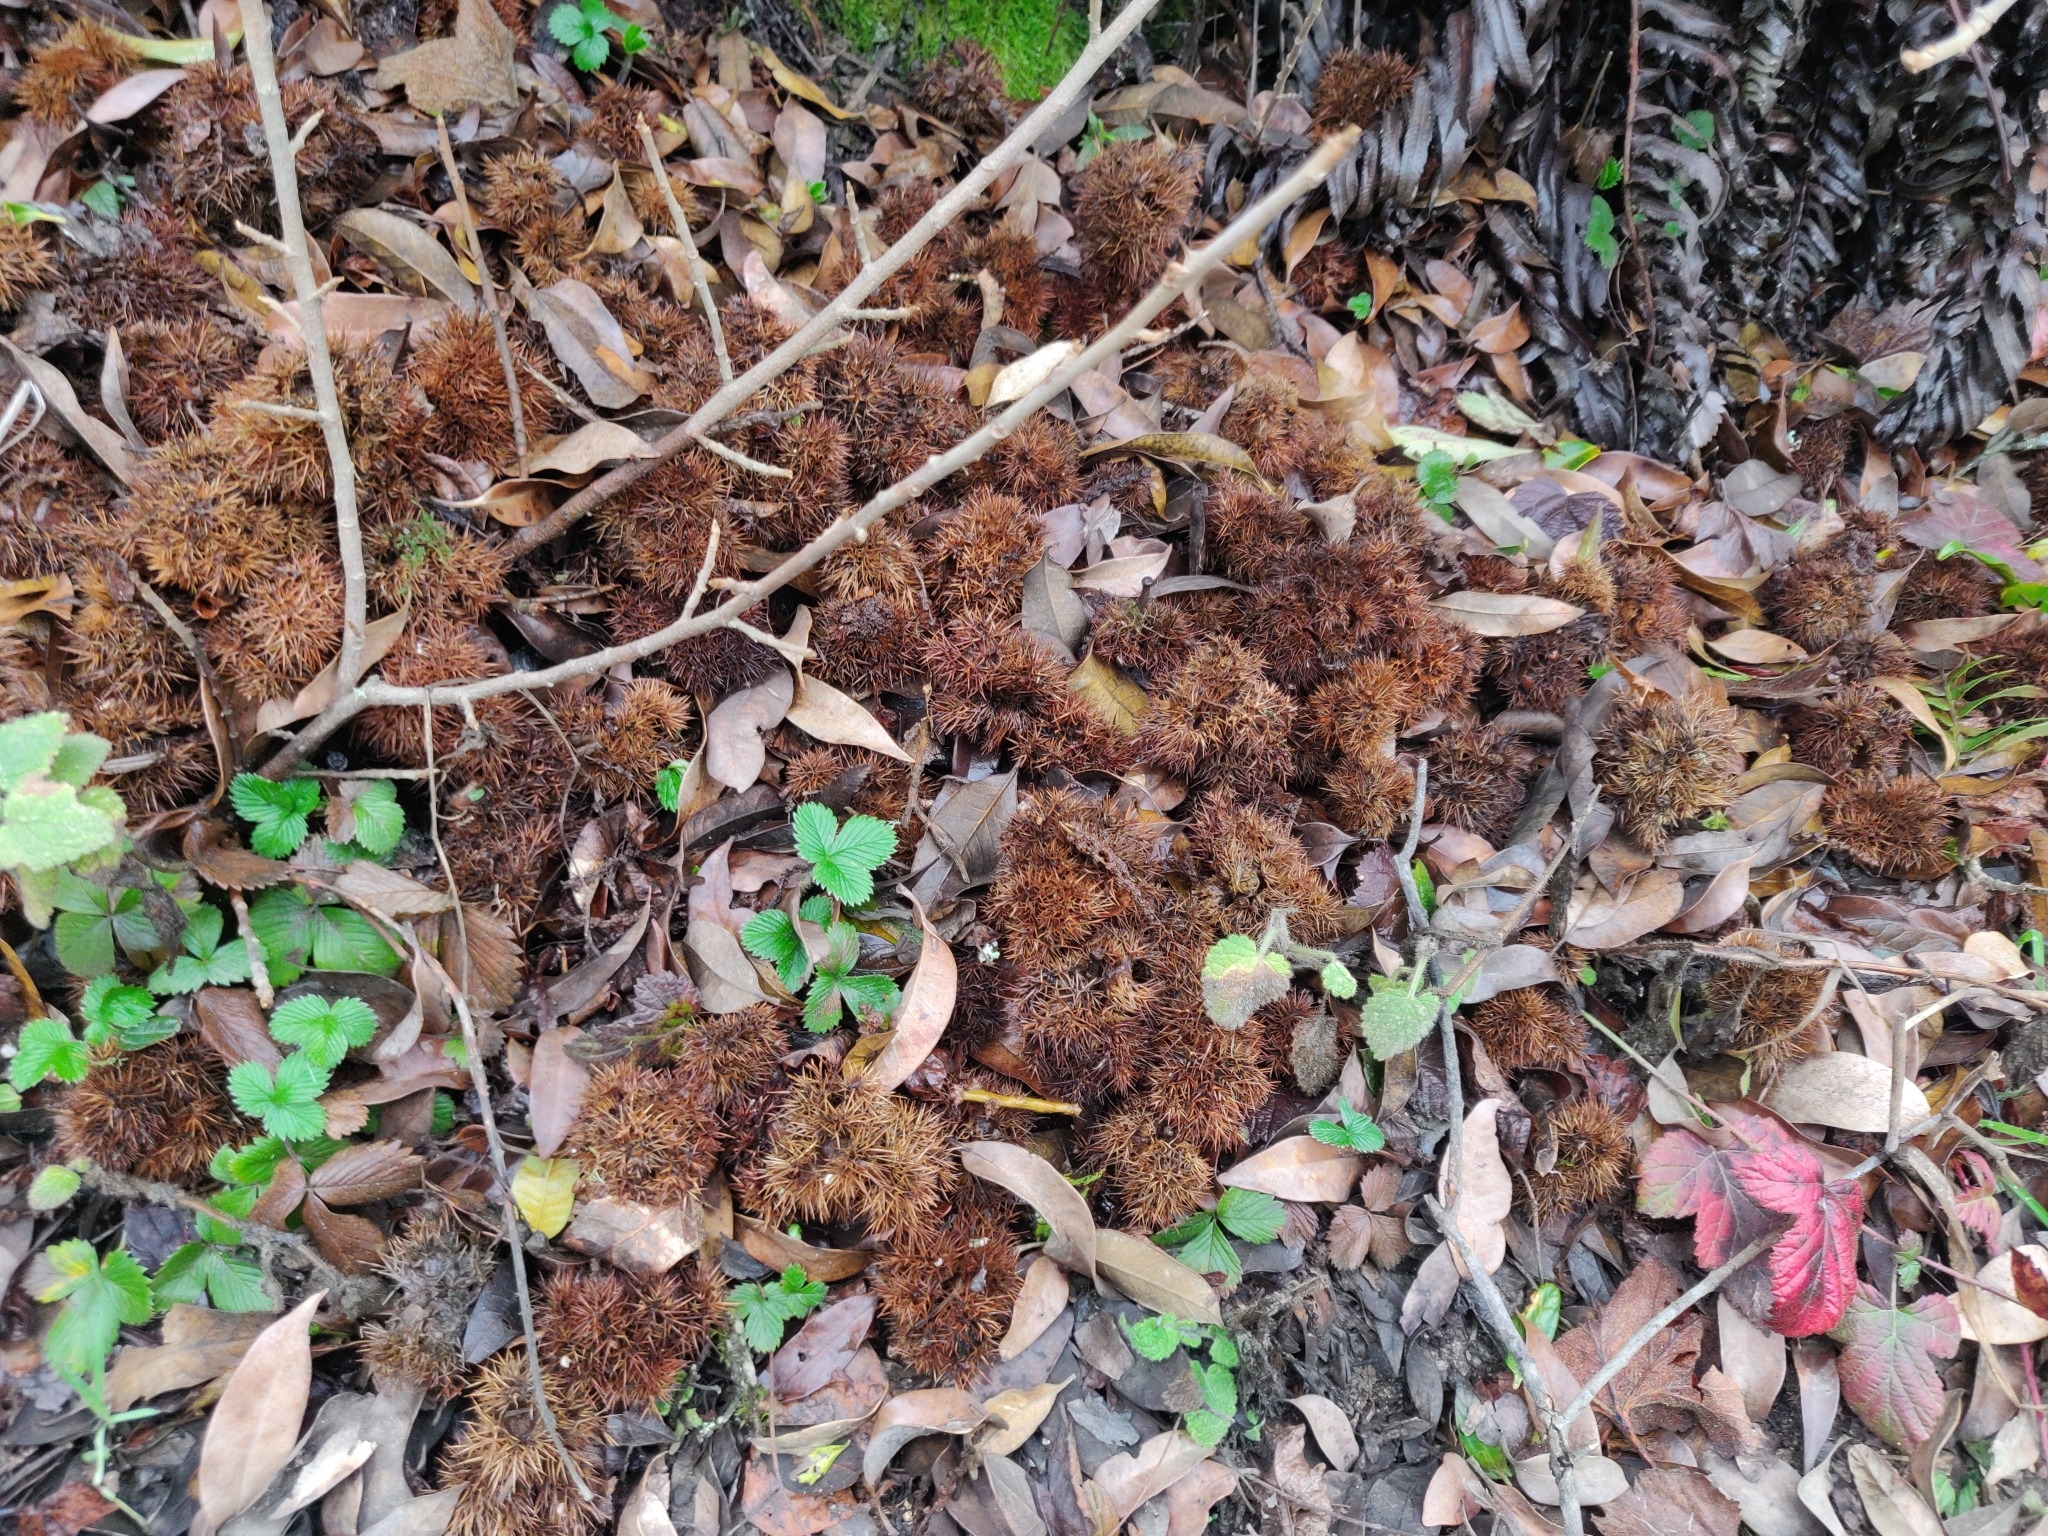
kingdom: Plantae
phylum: Tracheophyta
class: Magnoliopsida
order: Rosales
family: Rosaceae
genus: Fragaria
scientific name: Fragaria vesca
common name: Wild strawberry
